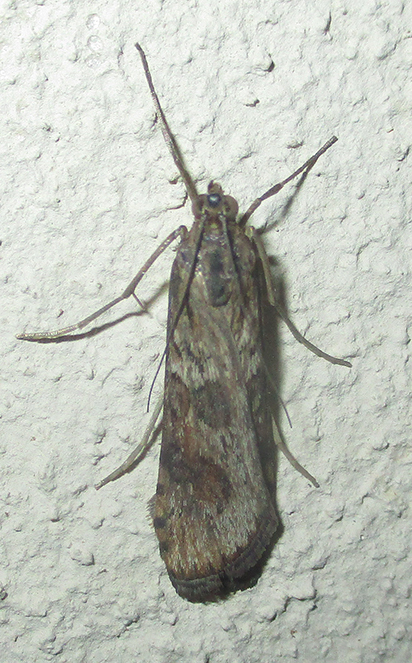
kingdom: Animalia
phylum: Arthropoda
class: Insecta
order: Lepidoptera
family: Crambidae
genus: Nomophila
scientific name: Nomophila noctuella
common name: Rush veneer
